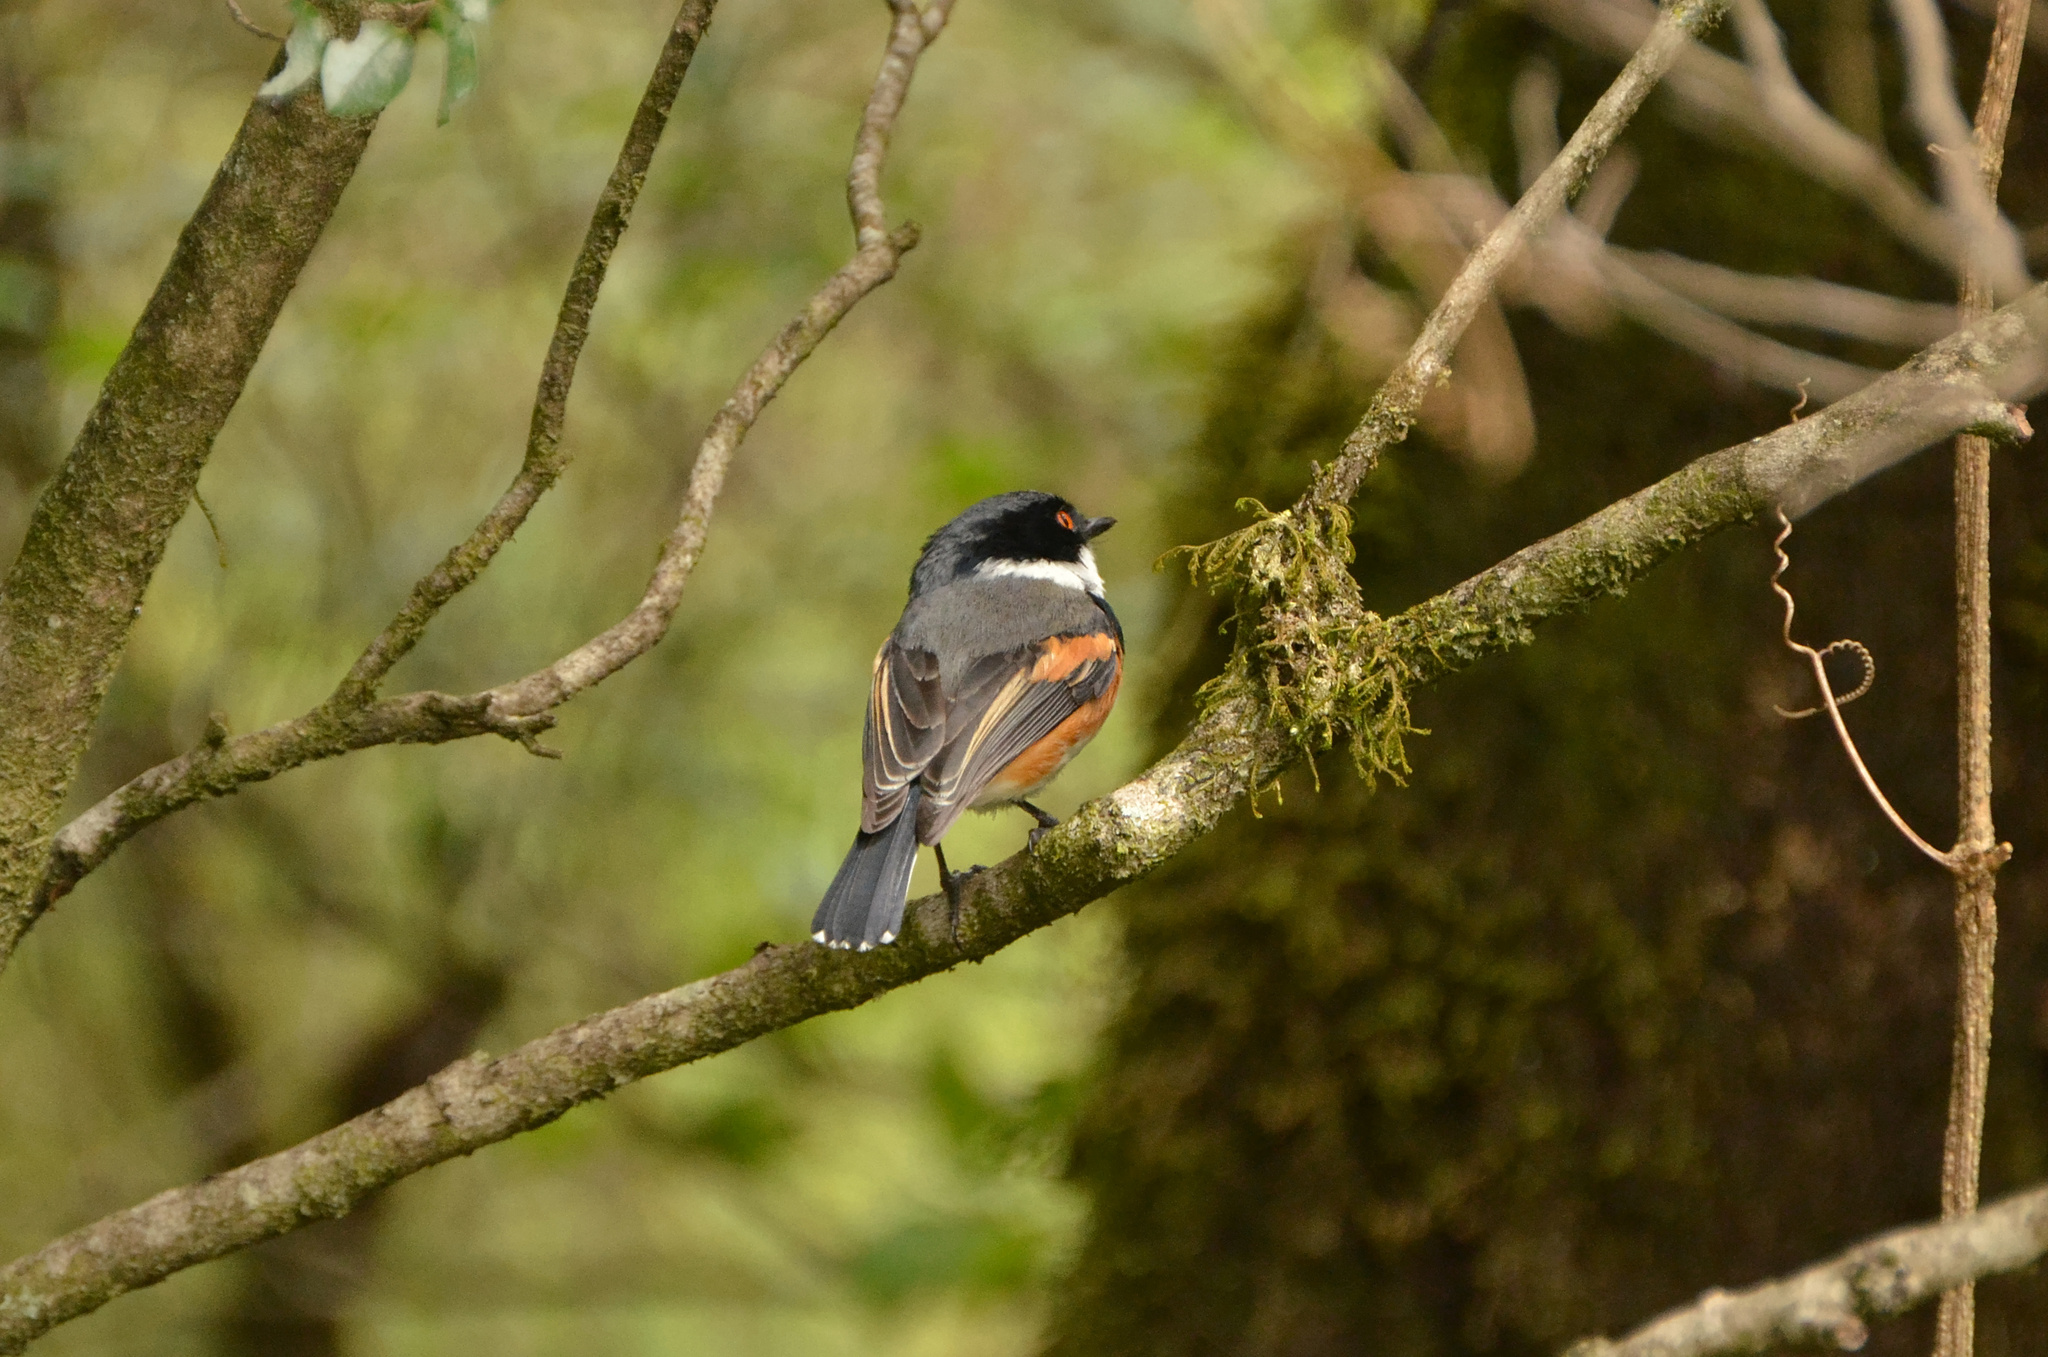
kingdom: Animalia
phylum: Chordata
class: Aves
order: Passeriformes
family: Platysteiridae
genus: Batis
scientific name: Batis capensis
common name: Cape batis
